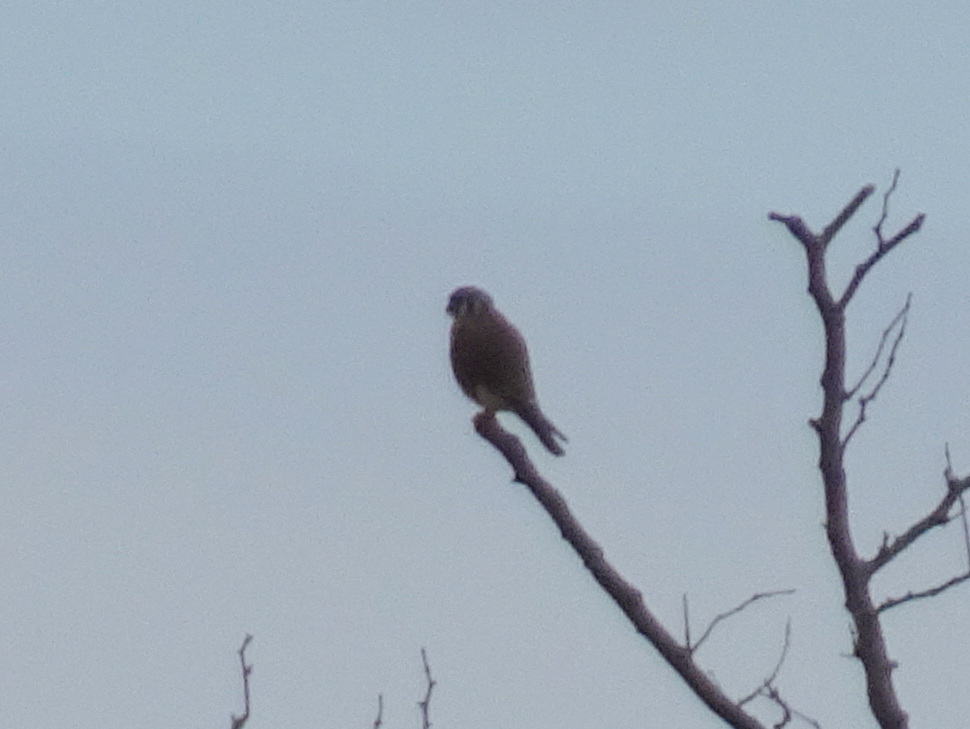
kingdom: Animalia
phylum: Chordata
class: Aves
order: Falconiformes
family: Falconidae
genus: Falco
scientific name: Falco sparverius
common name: American kestrel
